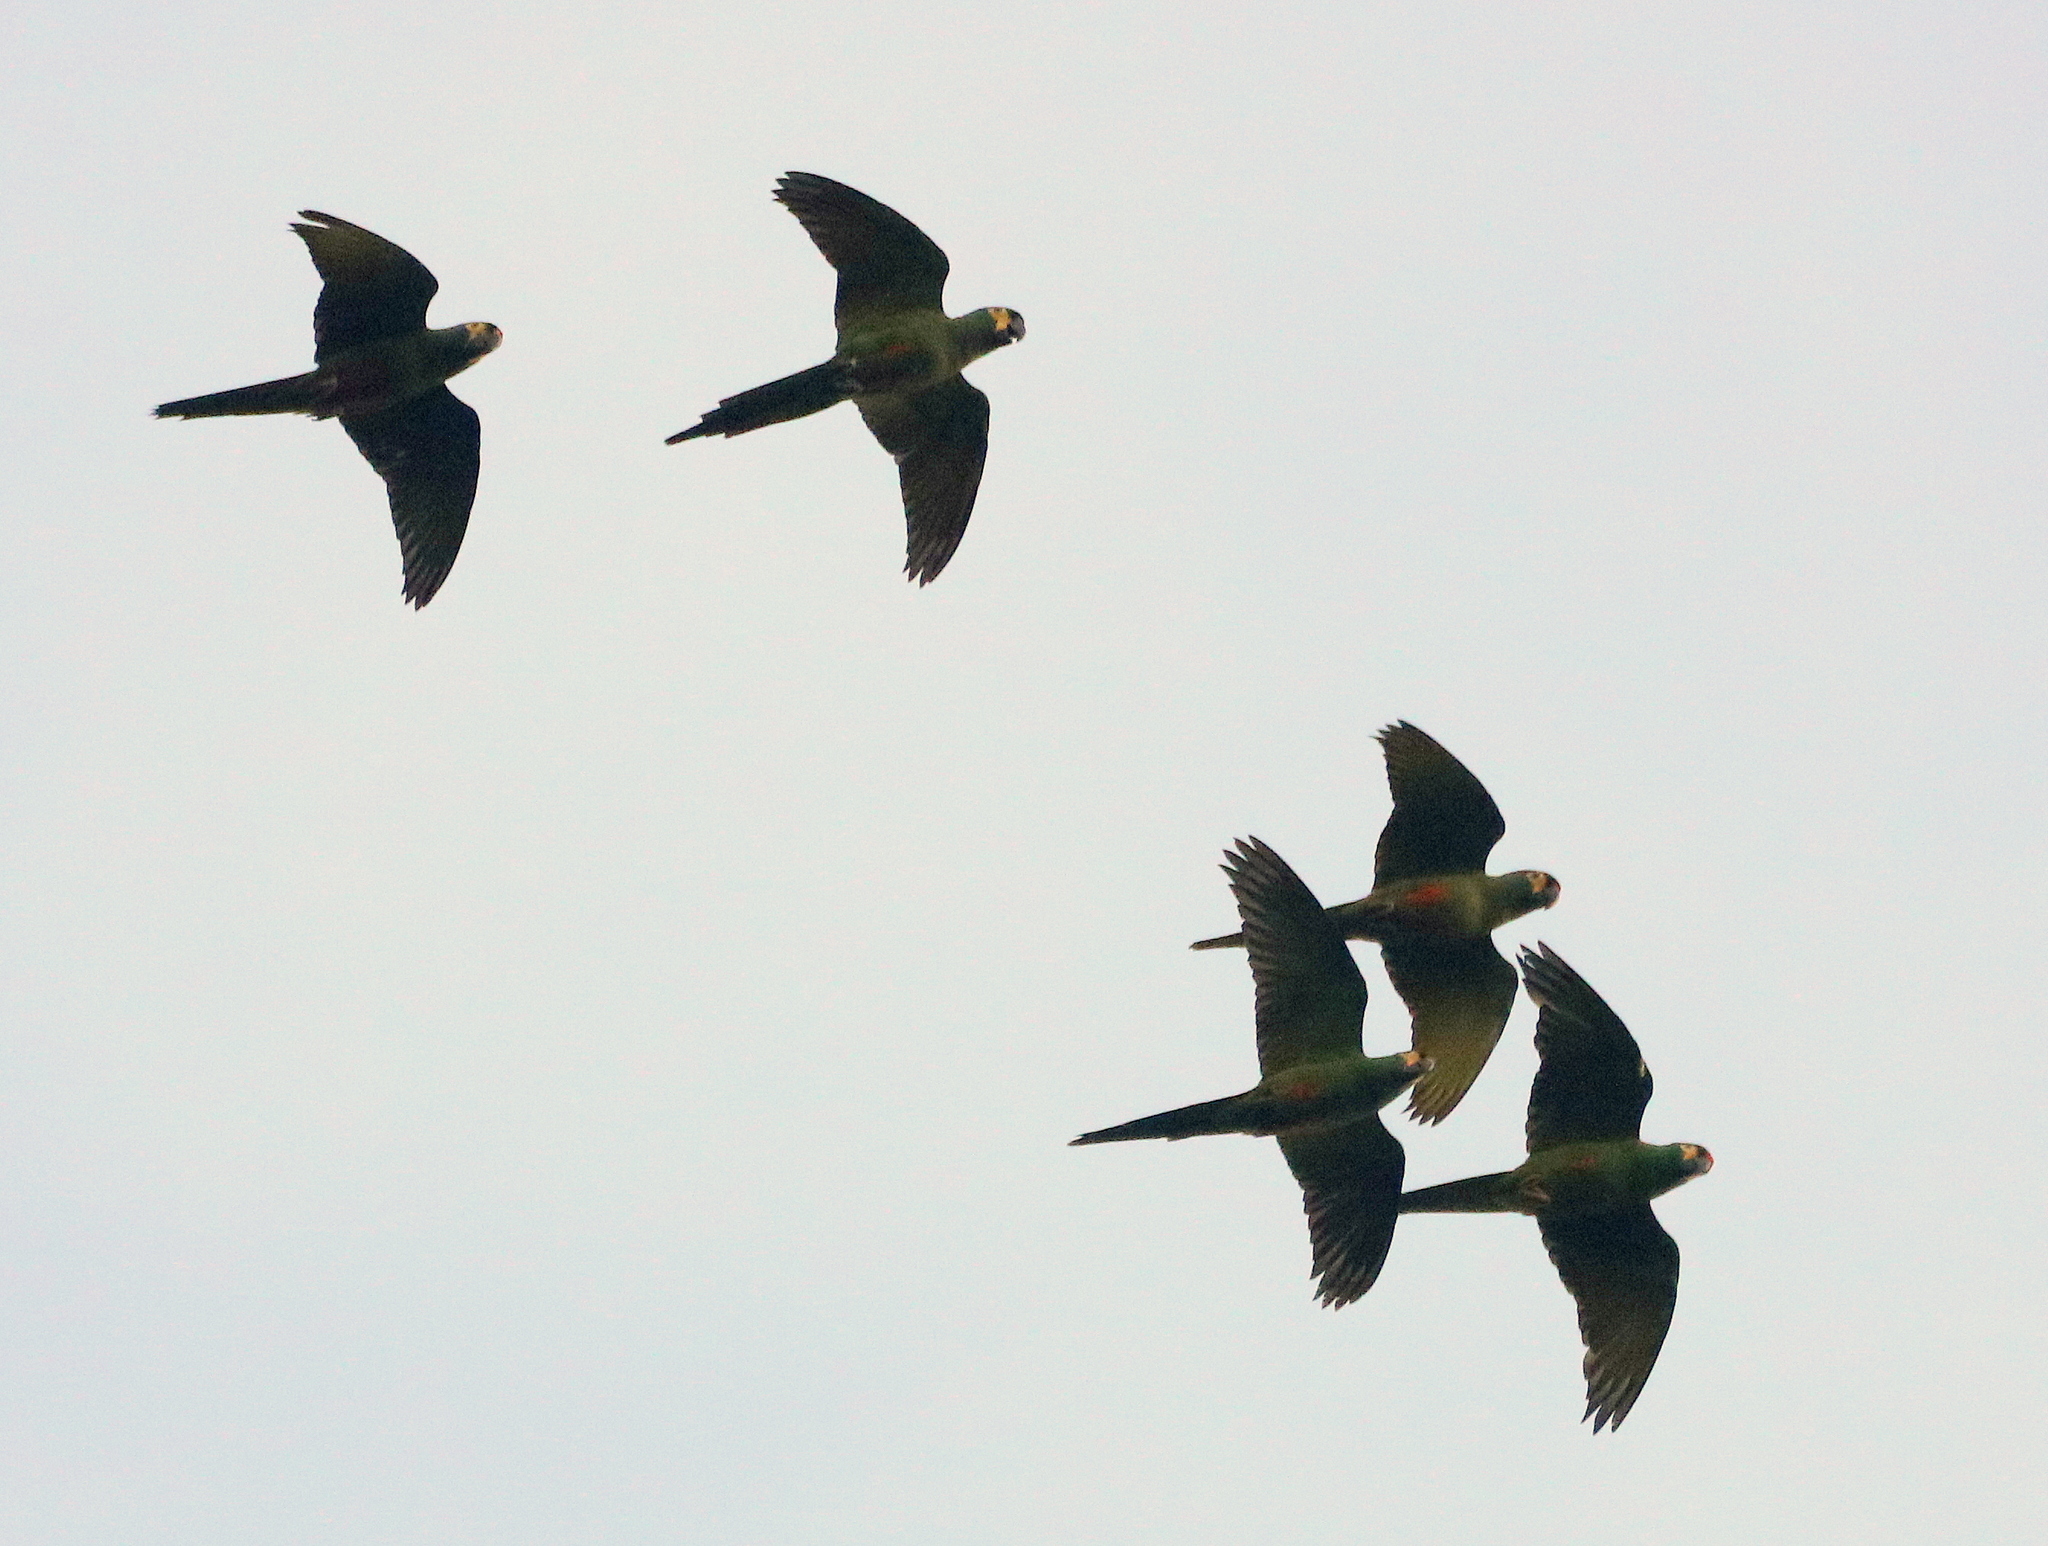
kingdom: Animalia
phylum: Chordata
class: Aves
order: Psittaciformes
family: Psittacidae
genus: Primolius
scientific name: Primolius maracana
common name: Blue-winged macaw
